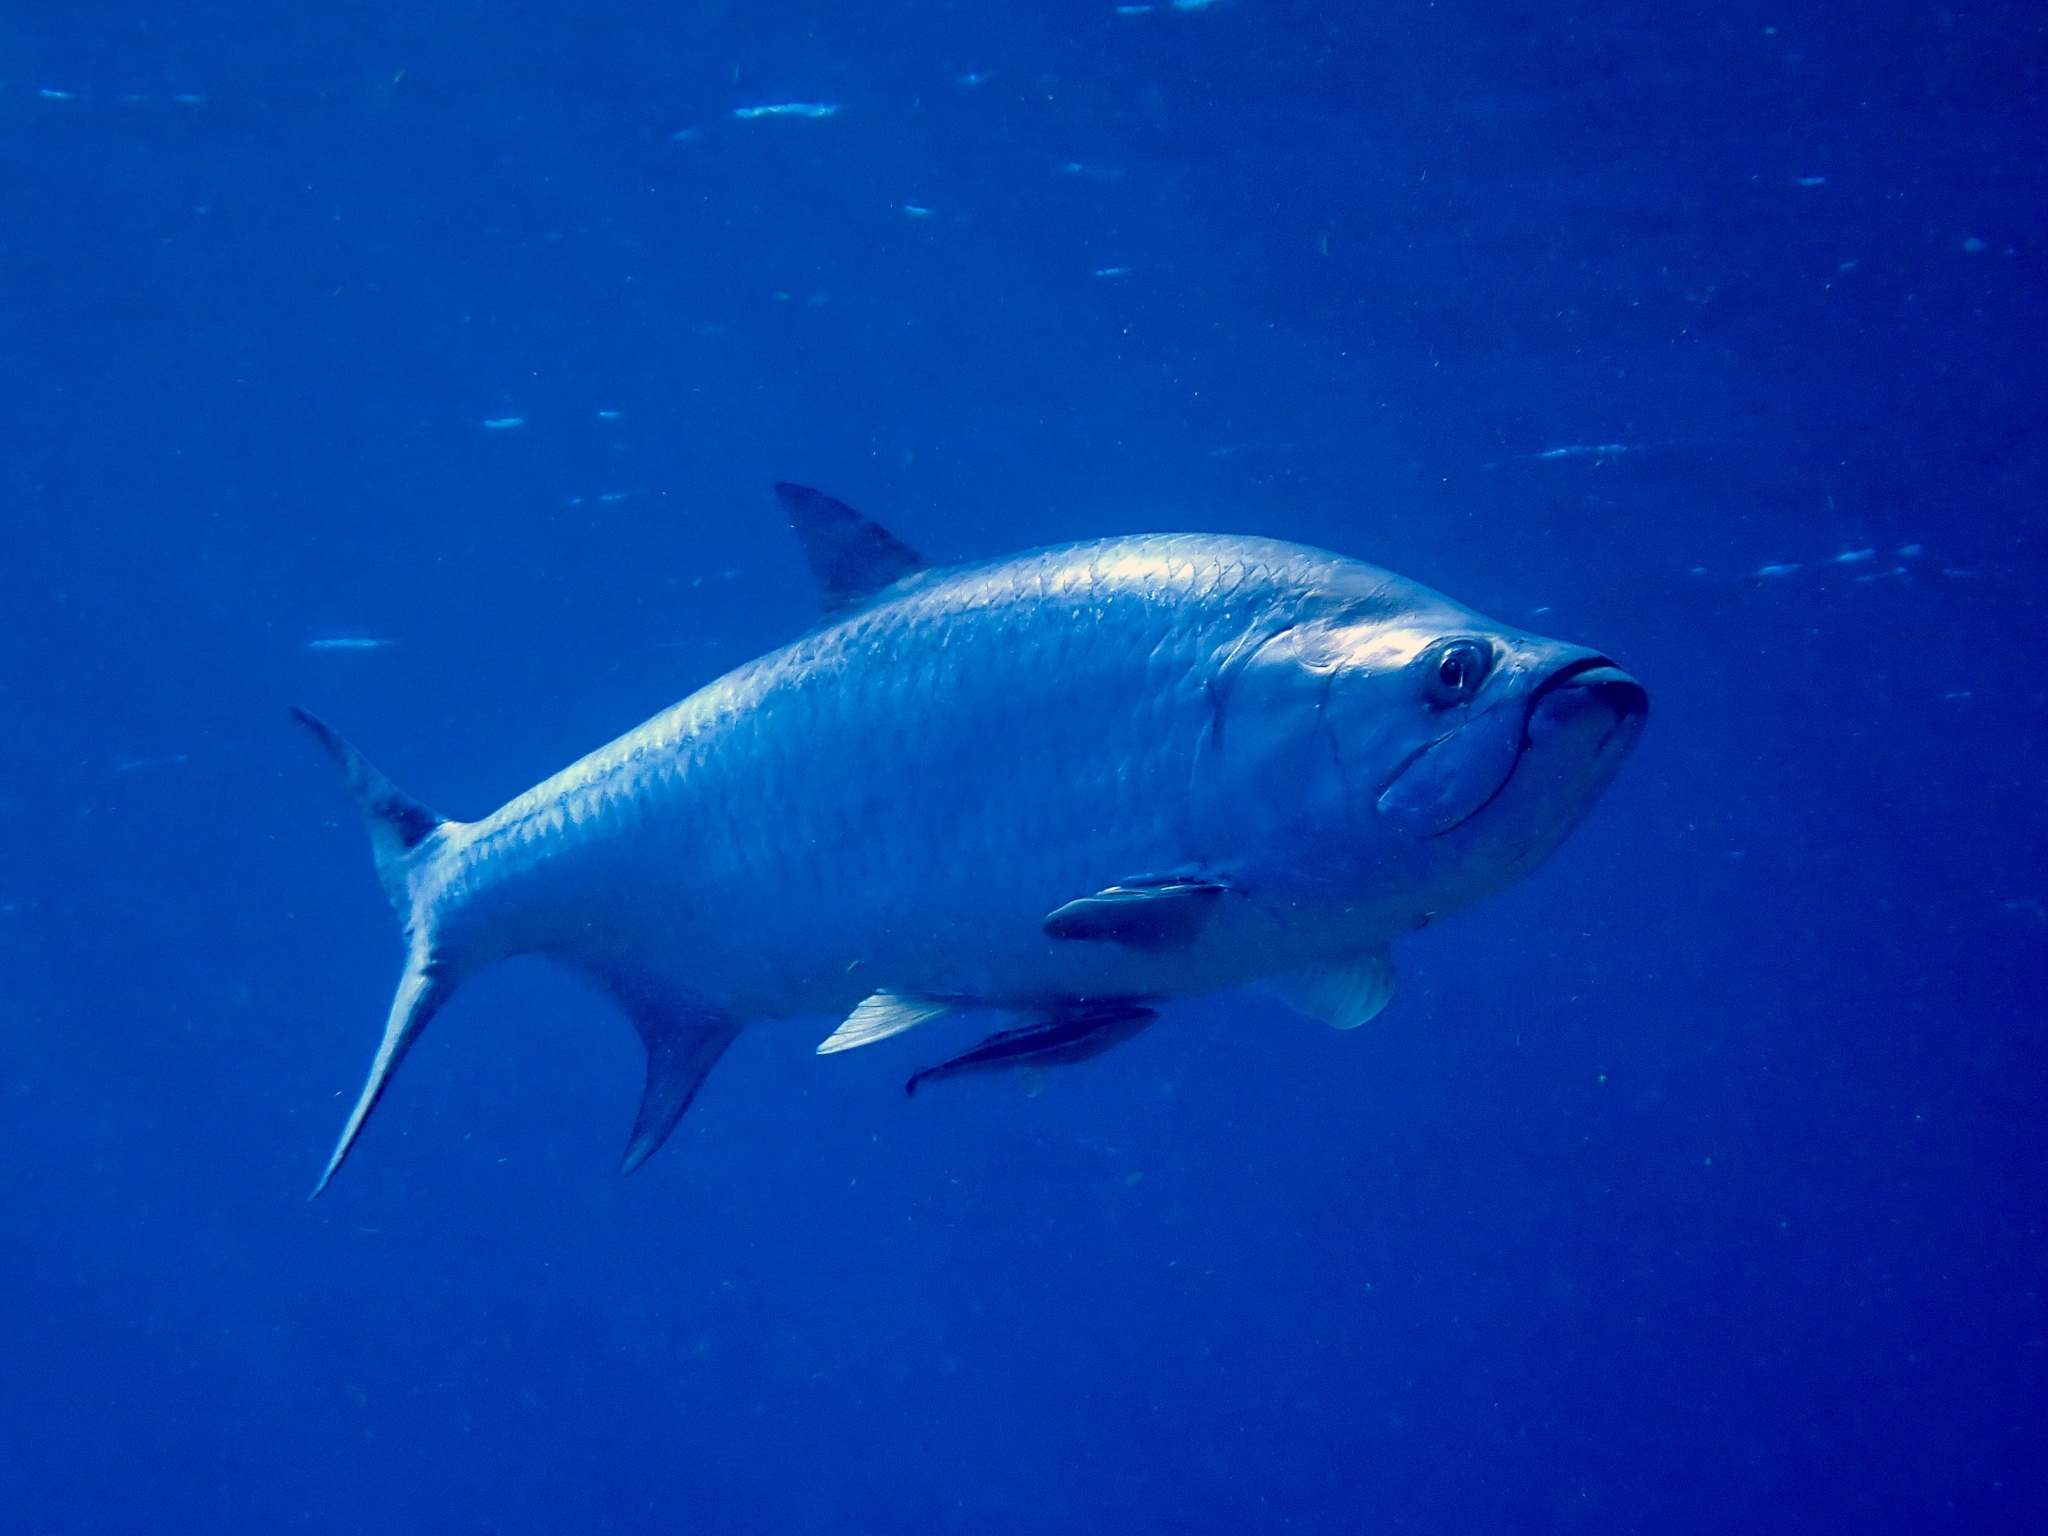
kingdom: Animalia
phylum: Chordata
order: Elopiformes
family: Megalopidae
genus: Megalops
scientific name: Megalops atlanticus
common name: Tarpon
